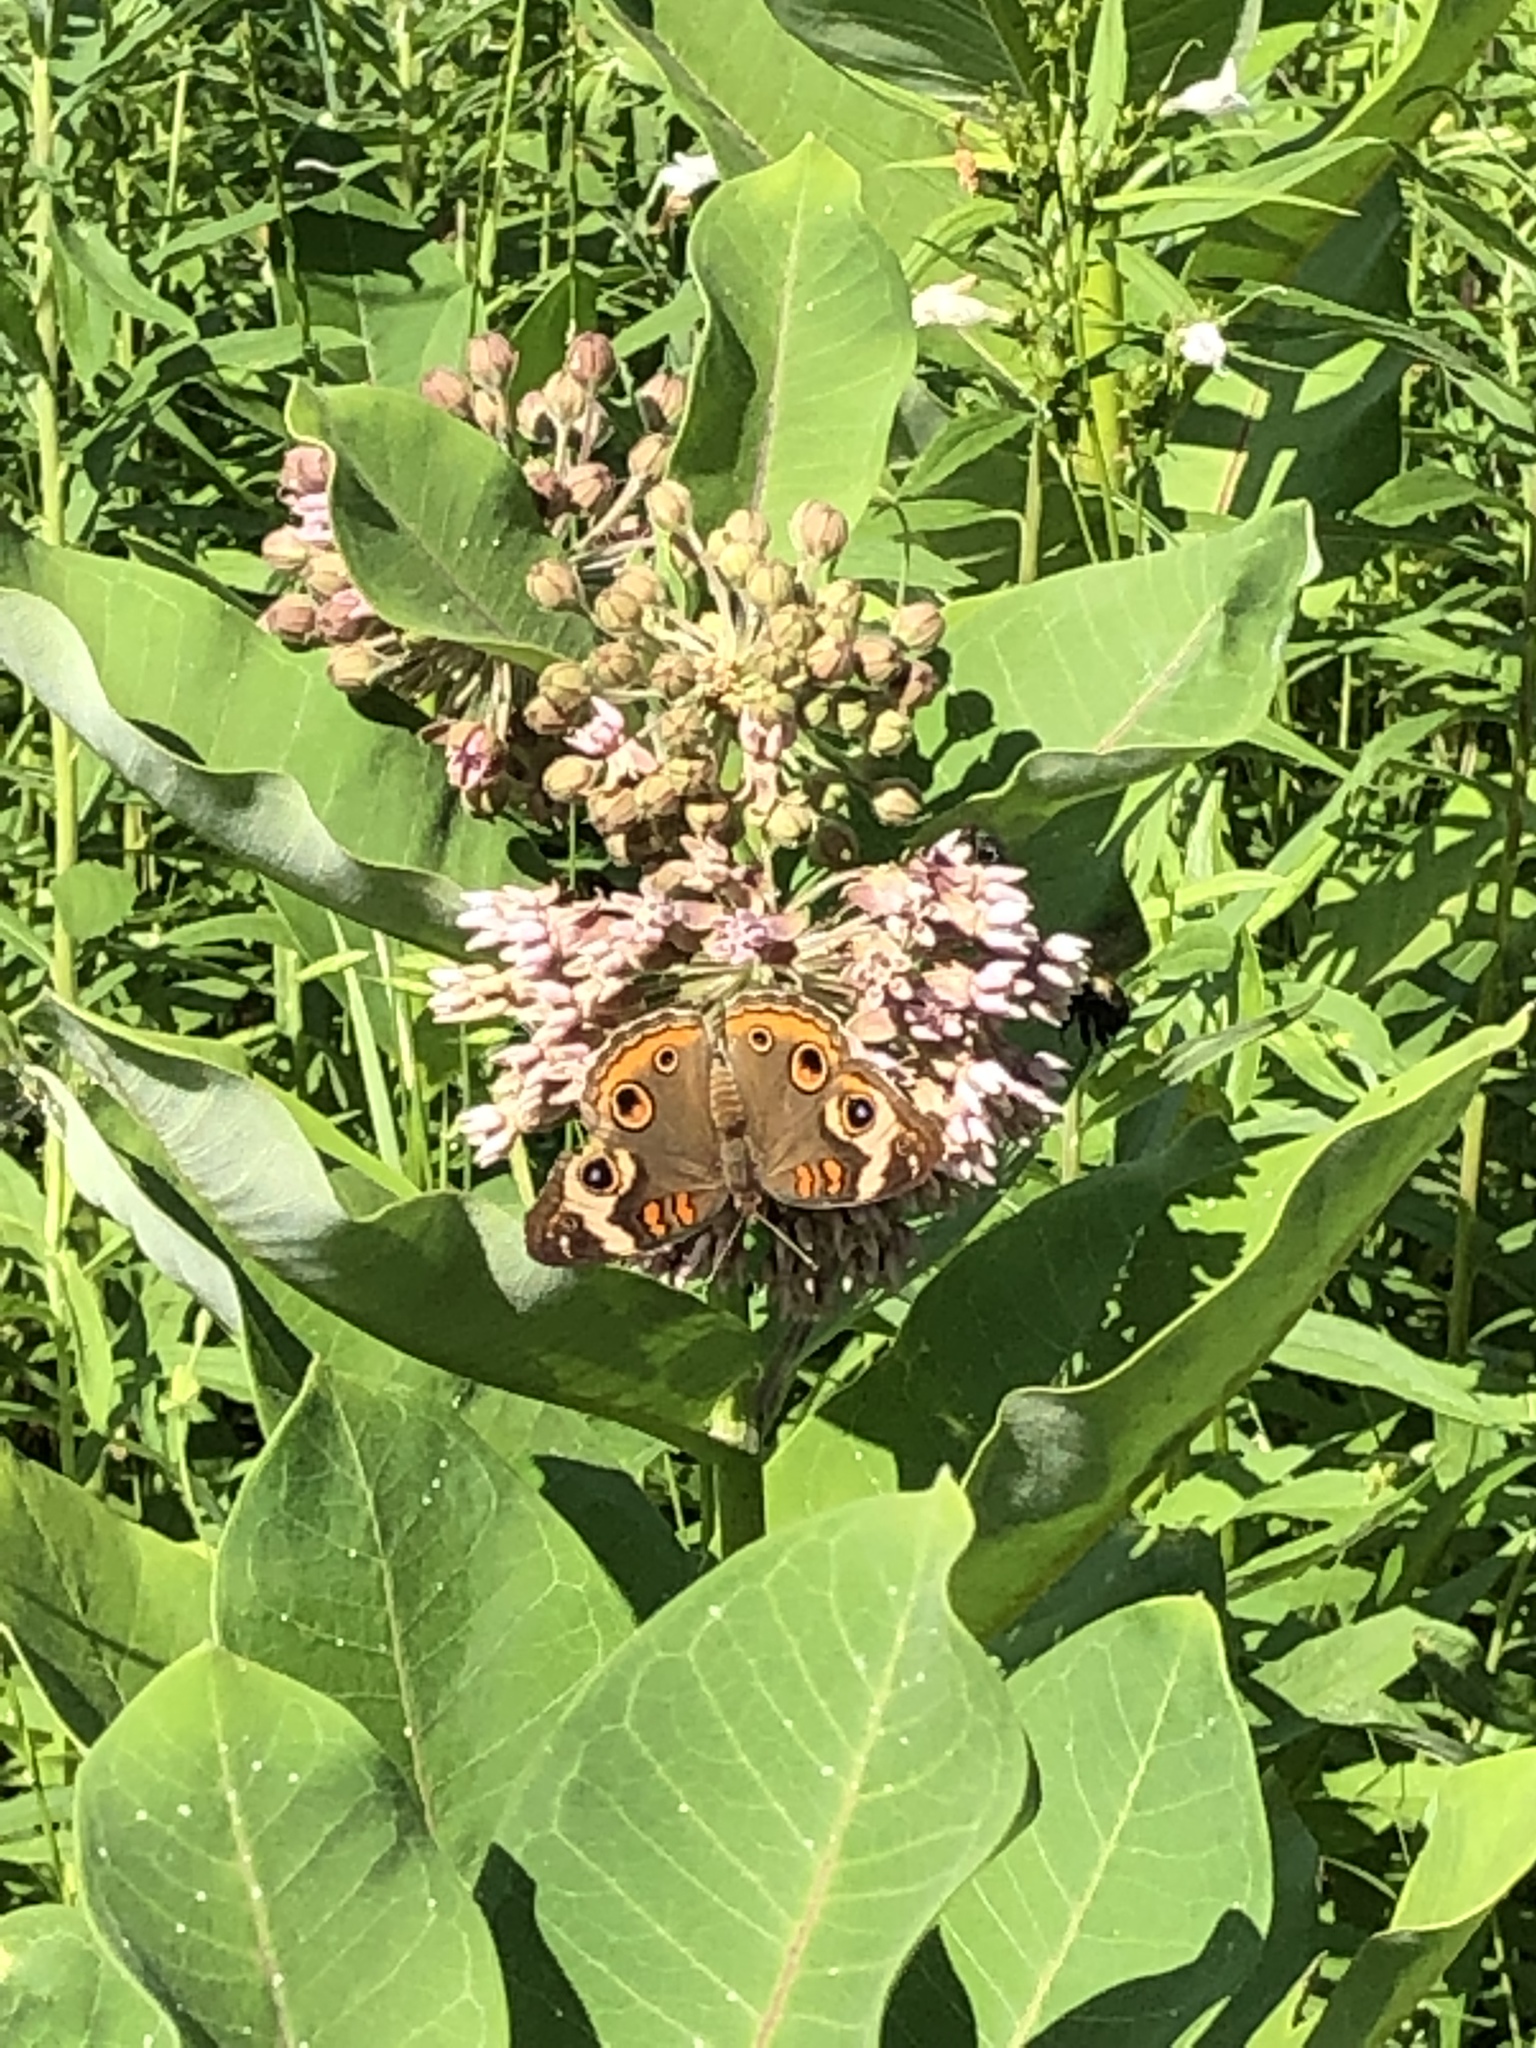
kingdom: Animalia
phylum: Arthropoda
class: Insecta
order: Lepidoptera
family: Nymphalidae
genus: Junonia
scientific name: Junonia coenia
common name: Common buckeye
